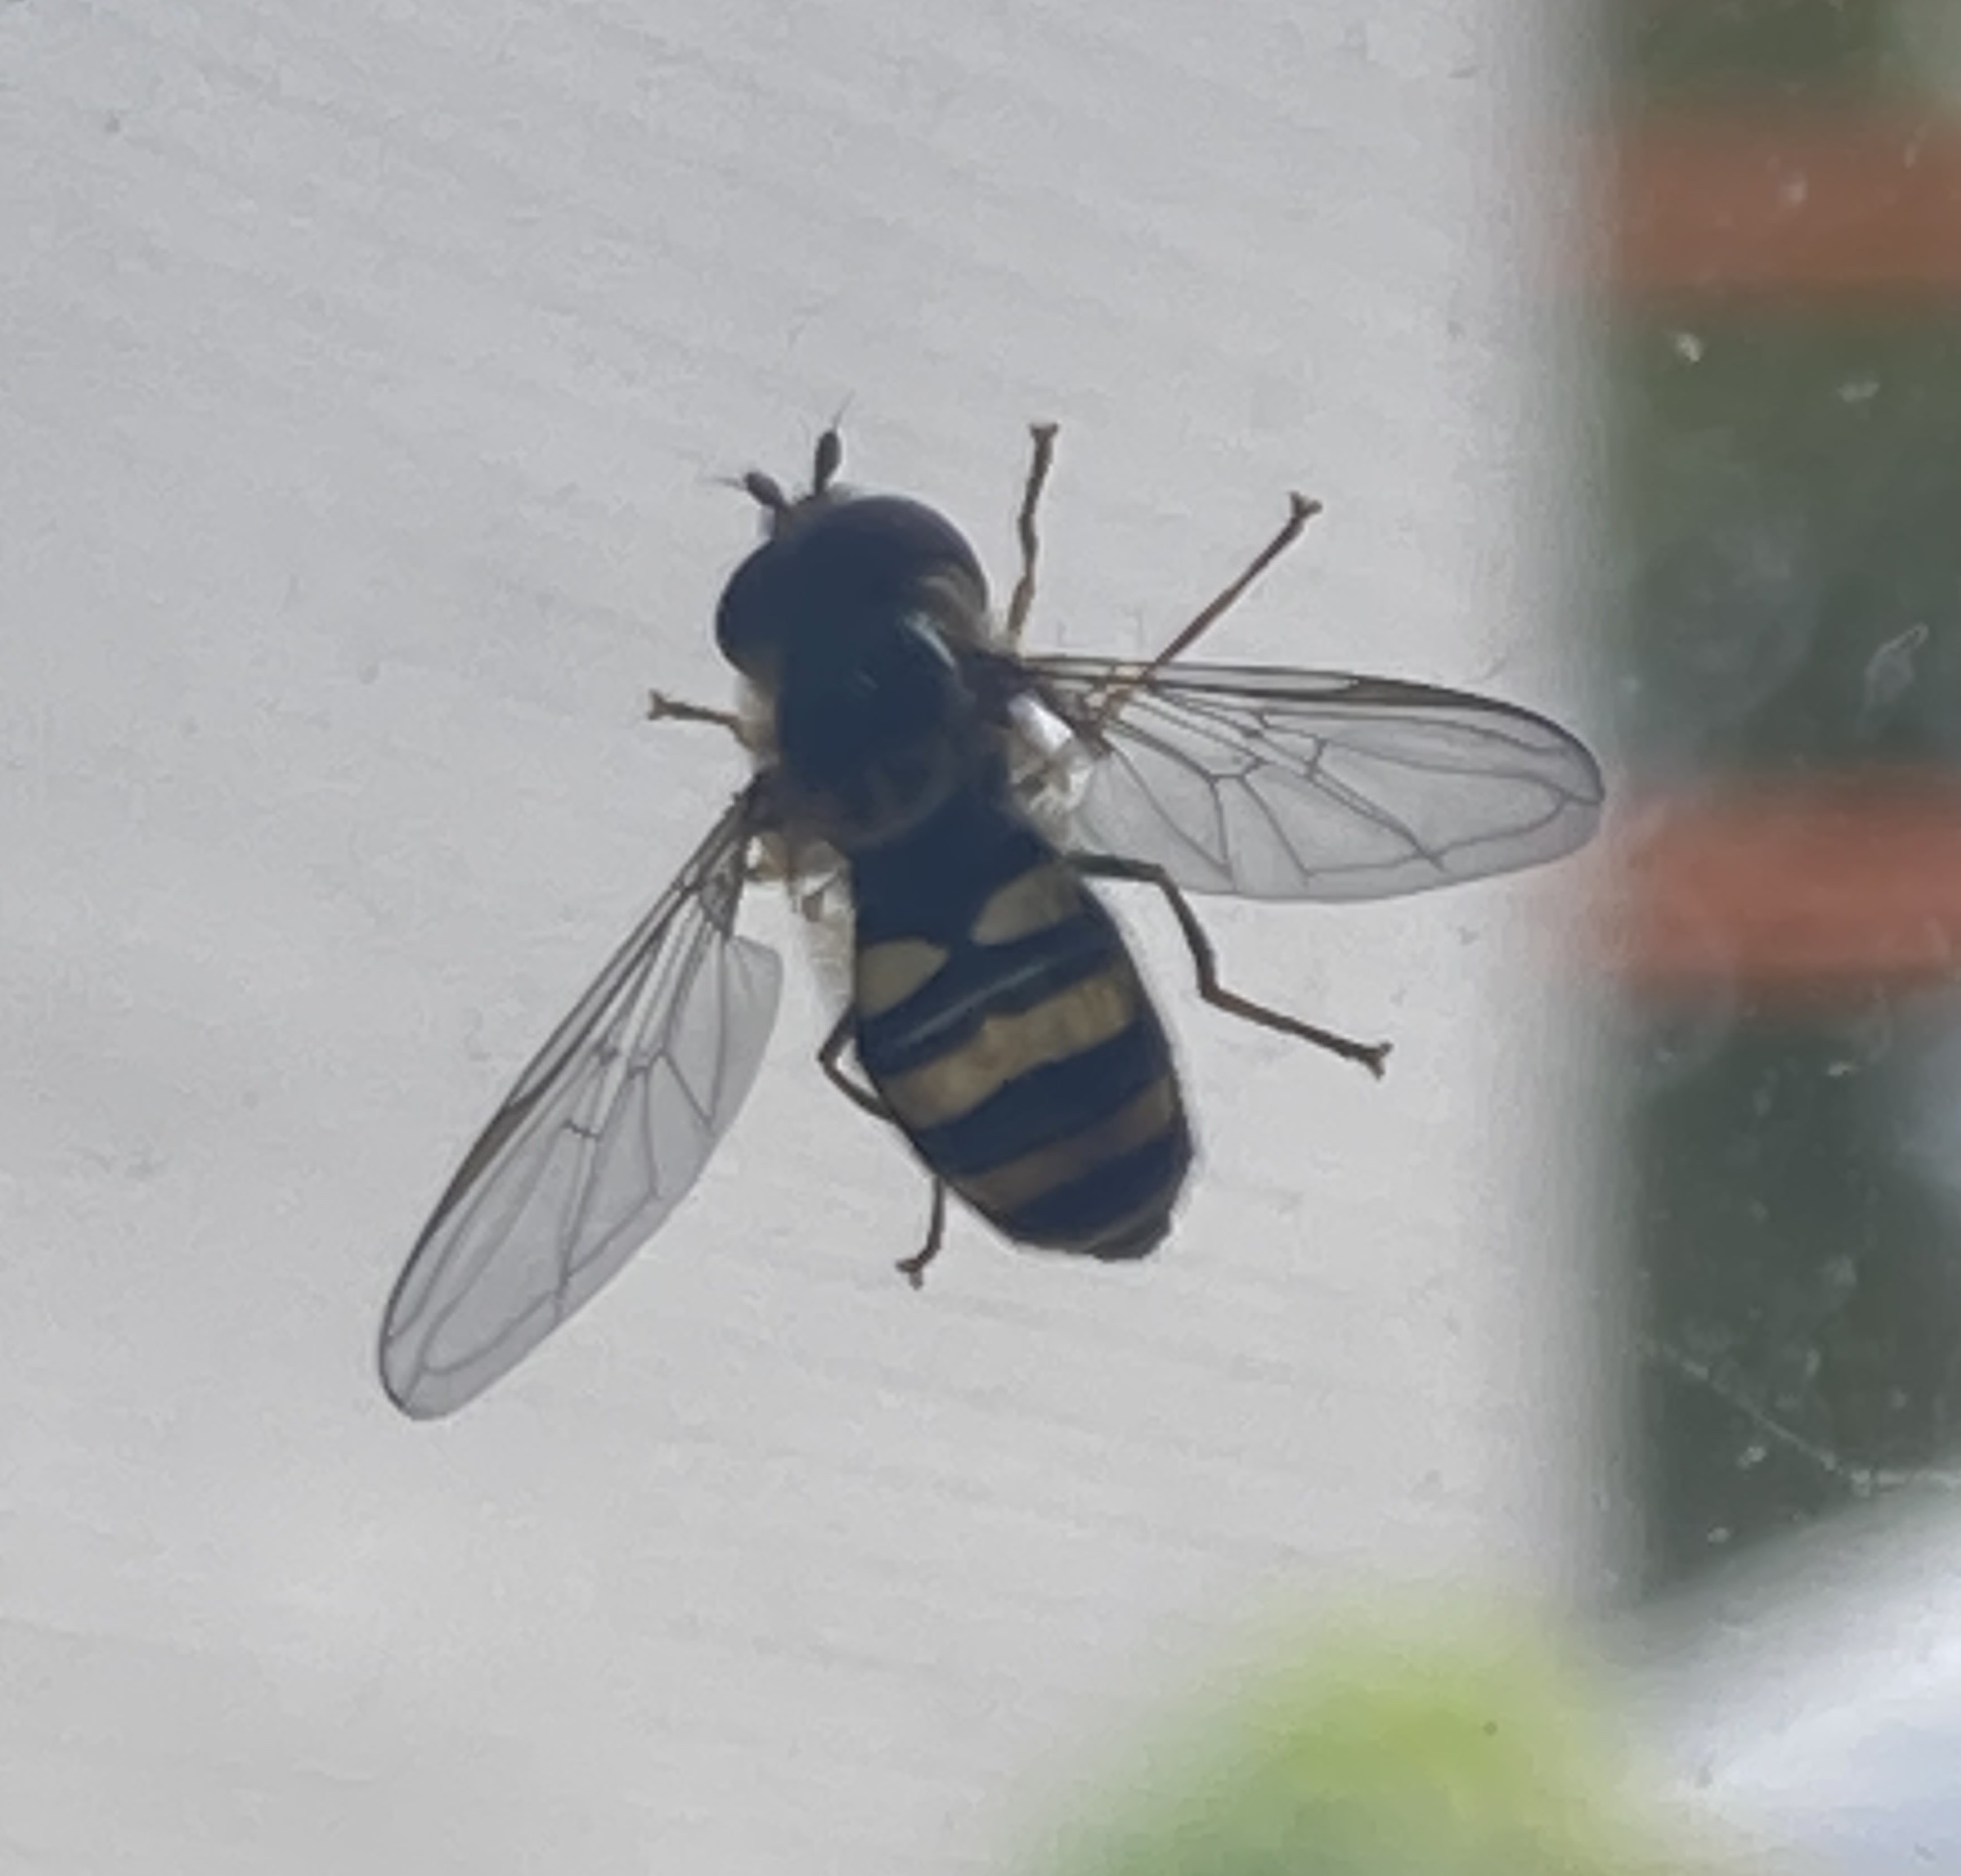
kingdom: Animalia
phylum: Arthropoda
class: Insecta
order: Diptera
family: Syrphidae
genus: Eupeodes
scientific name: Eupeodes
